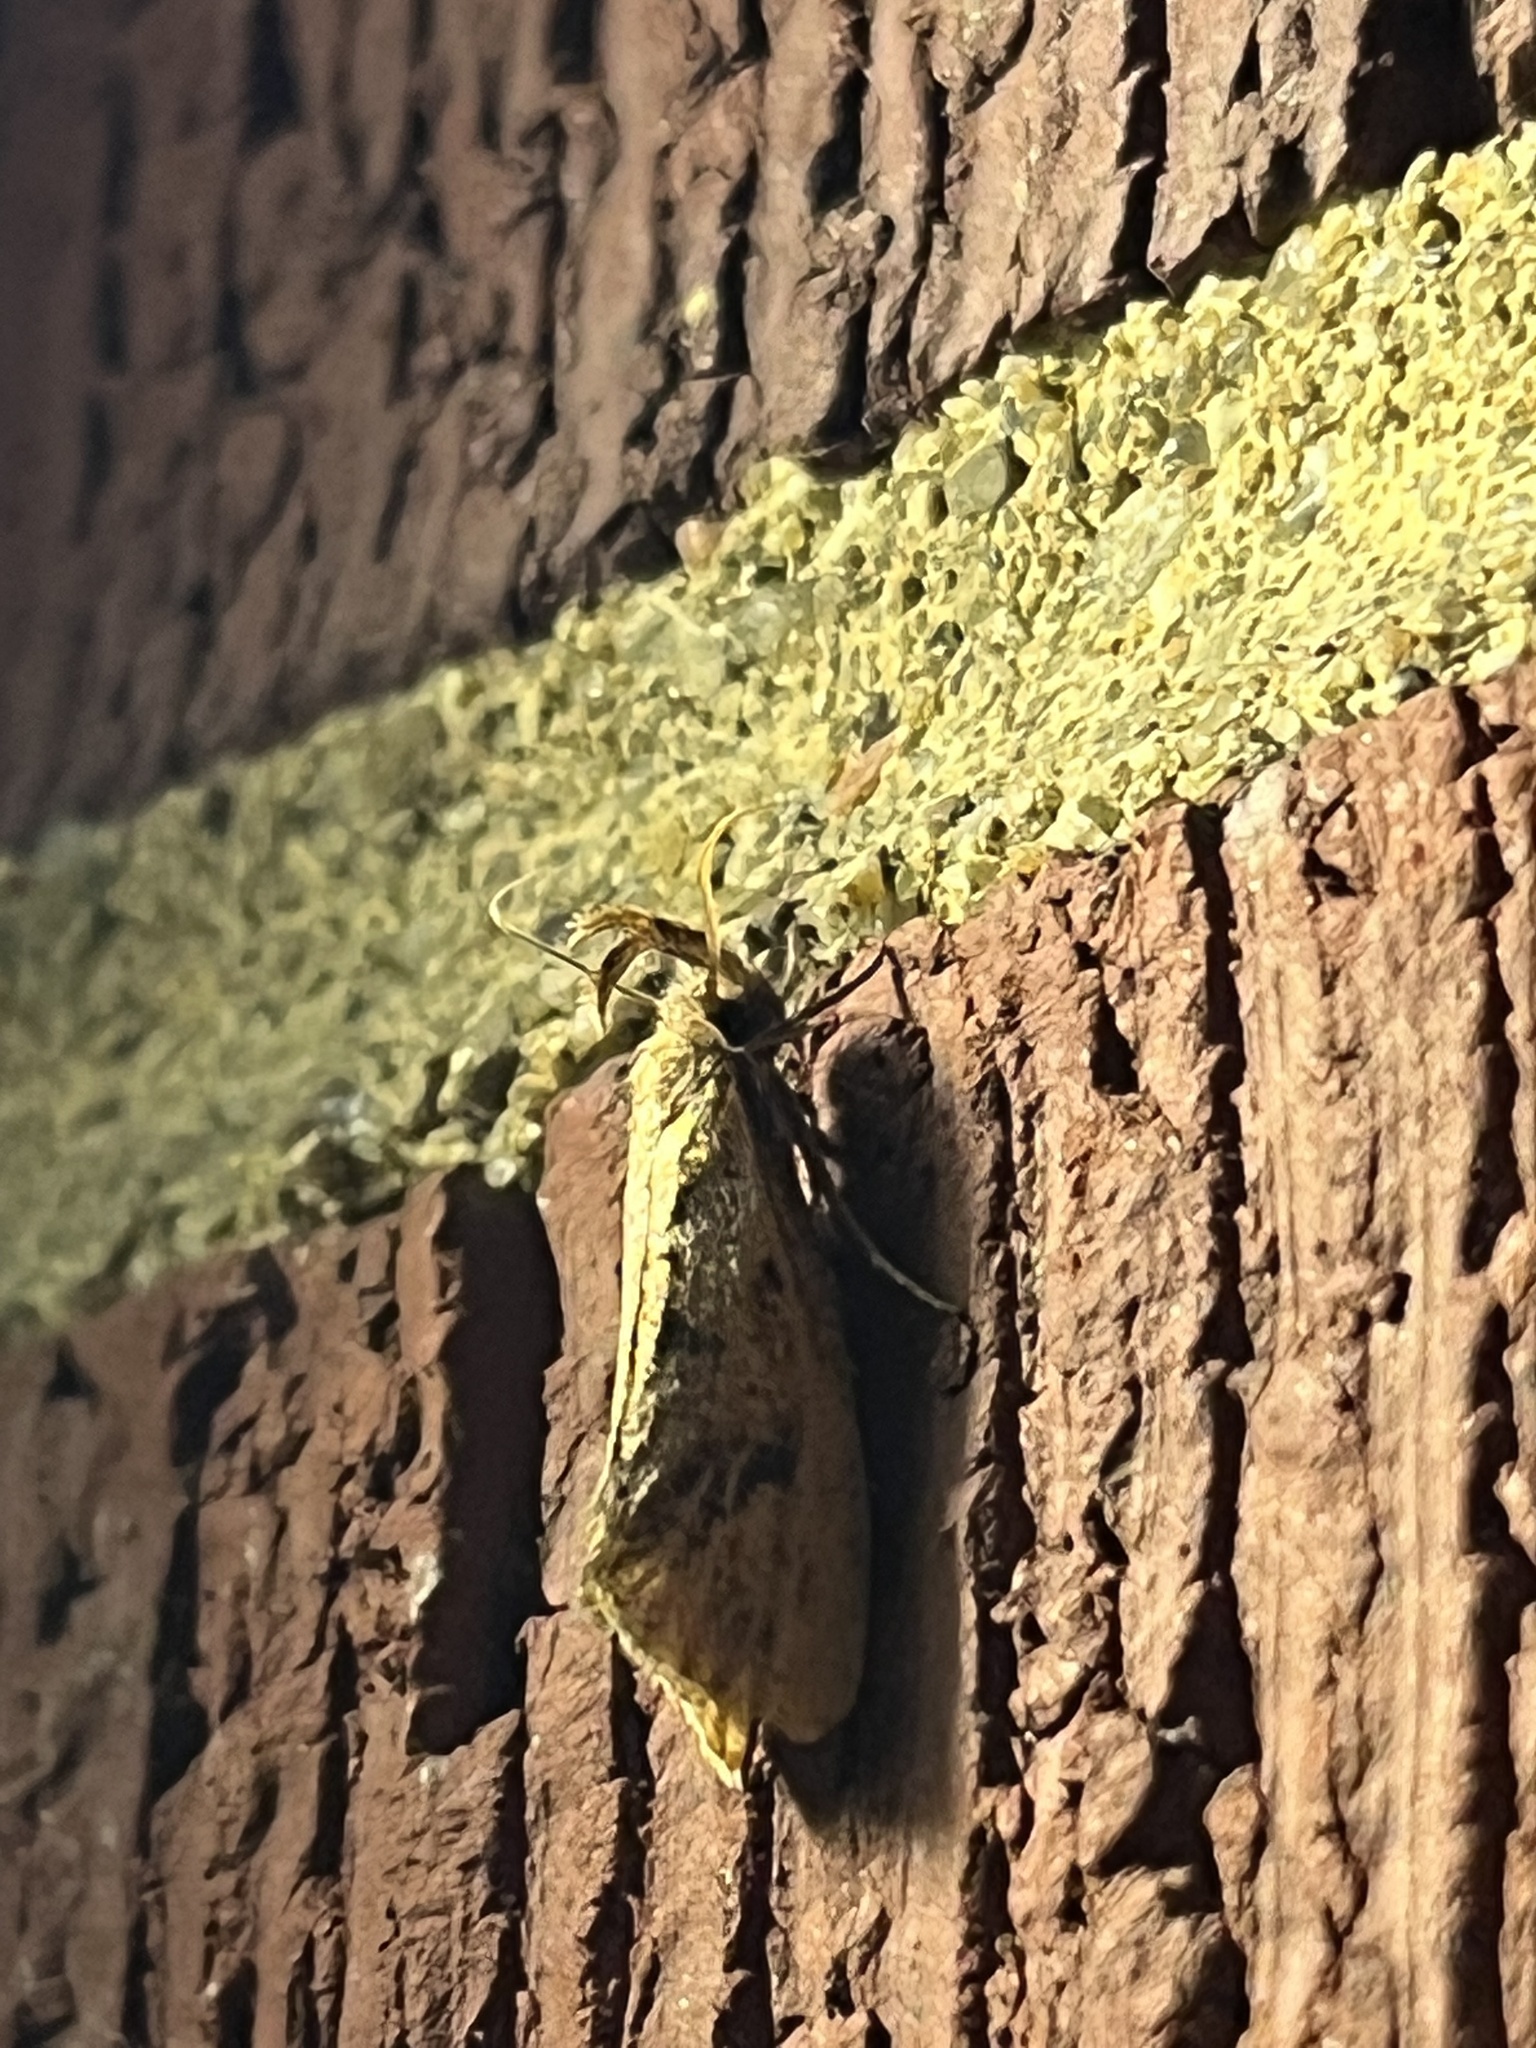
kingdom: Animalia
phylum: Arthropoda
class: Insecta
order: Lepidoptera
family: Tineidae
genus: Acrolophus
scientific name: Acrolophus mortipennella
